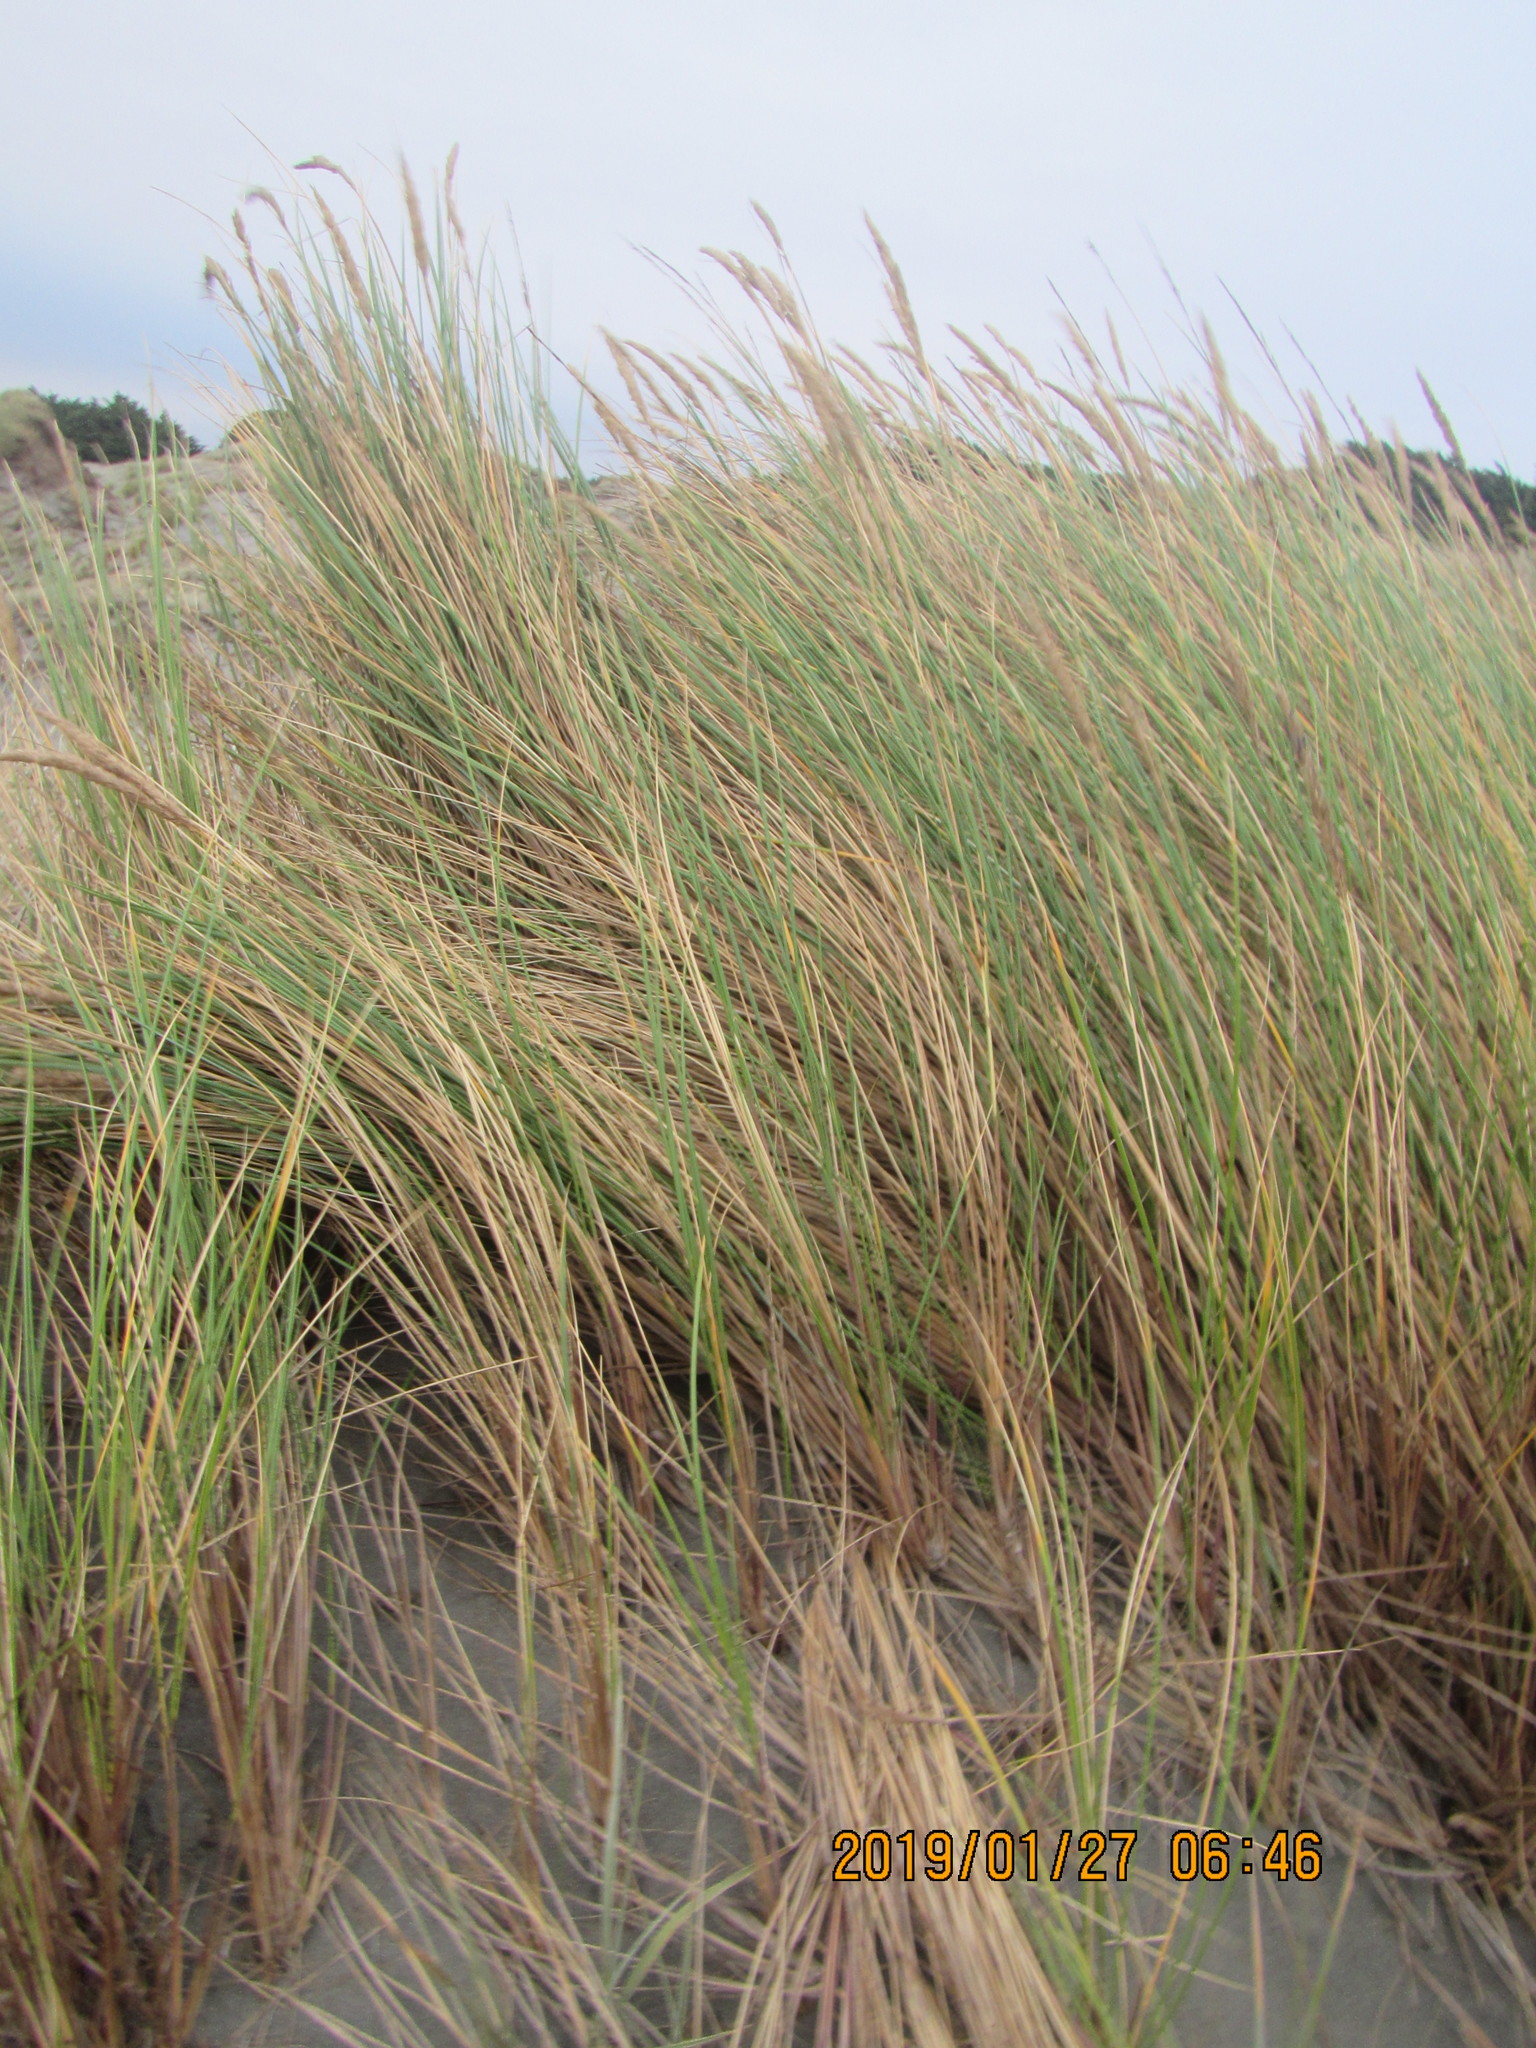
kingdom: Plantae
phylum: Tracheophyta
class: Liliopsida
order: Poales
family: Poaceae
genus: Calamagrostis
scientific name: Calamagrostis arenaria
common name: European beachgrass
